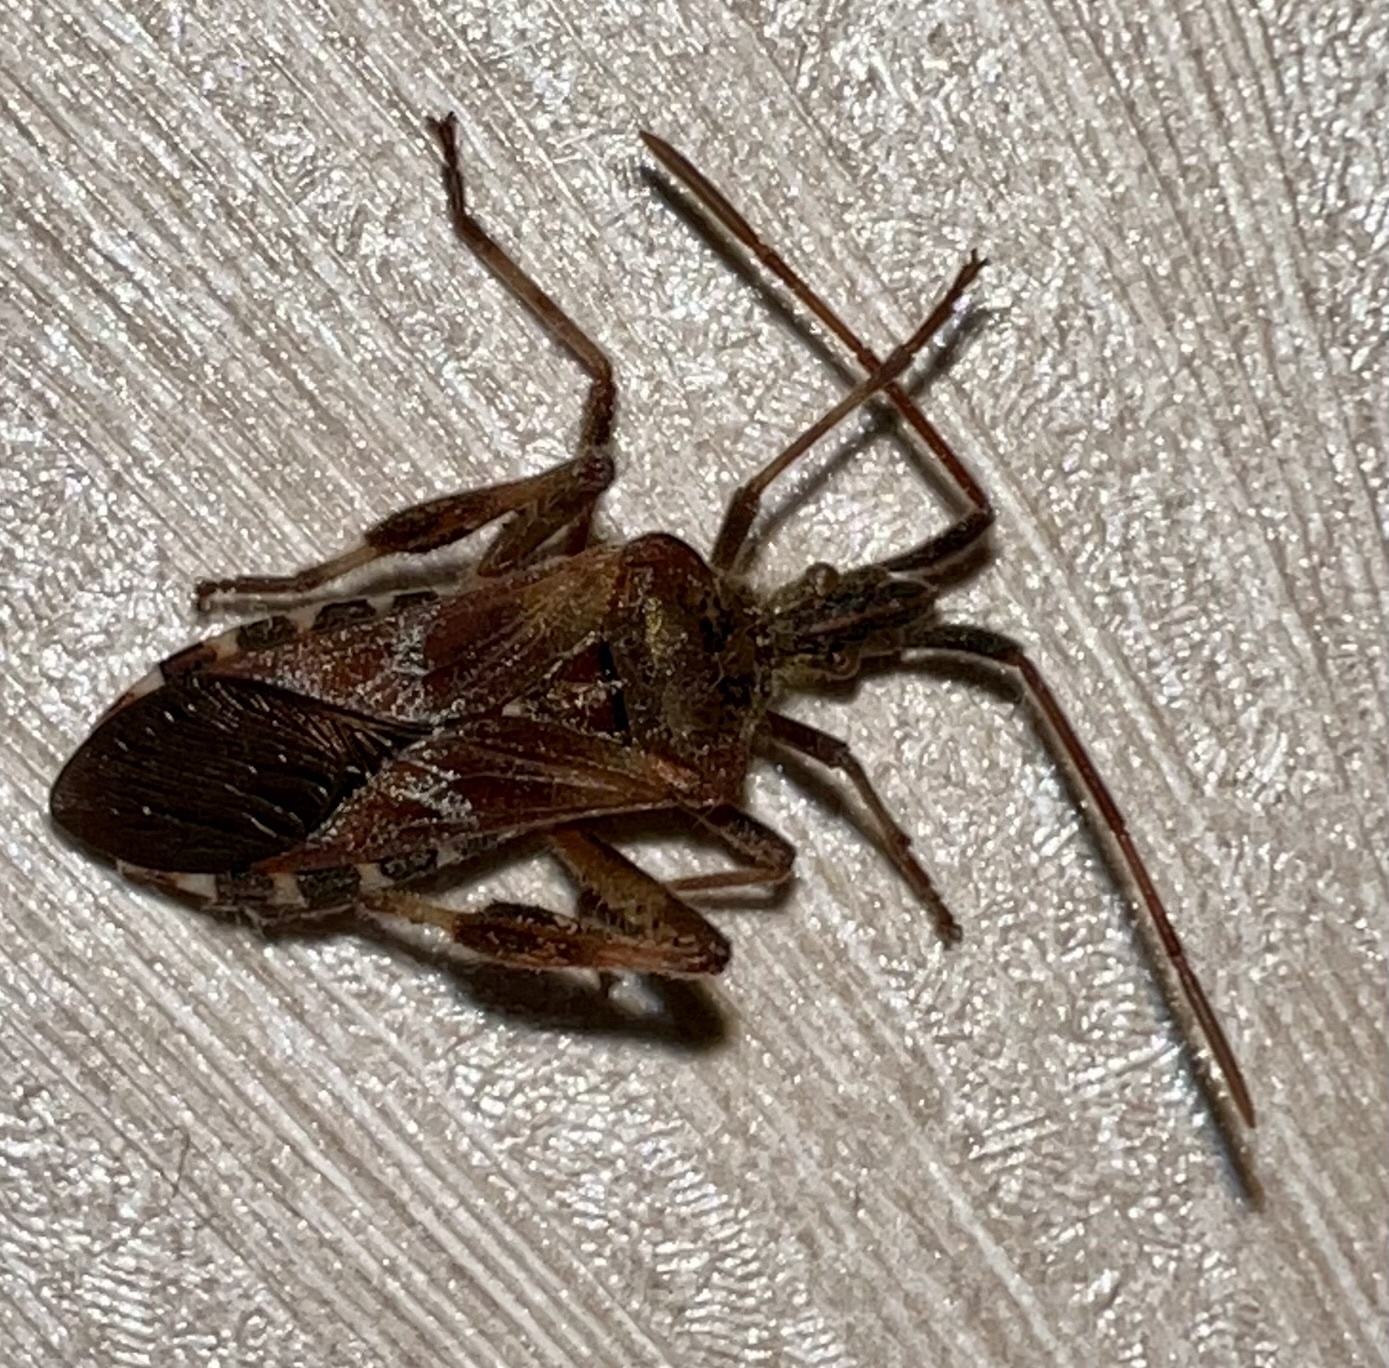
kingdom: Animalia
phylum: Arthropoda
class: Insecta
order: Hemiptera
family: Coreidae
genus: Leptoglossus
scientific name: Leptoglossus occidentalis
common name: Western conifer-seed bug
